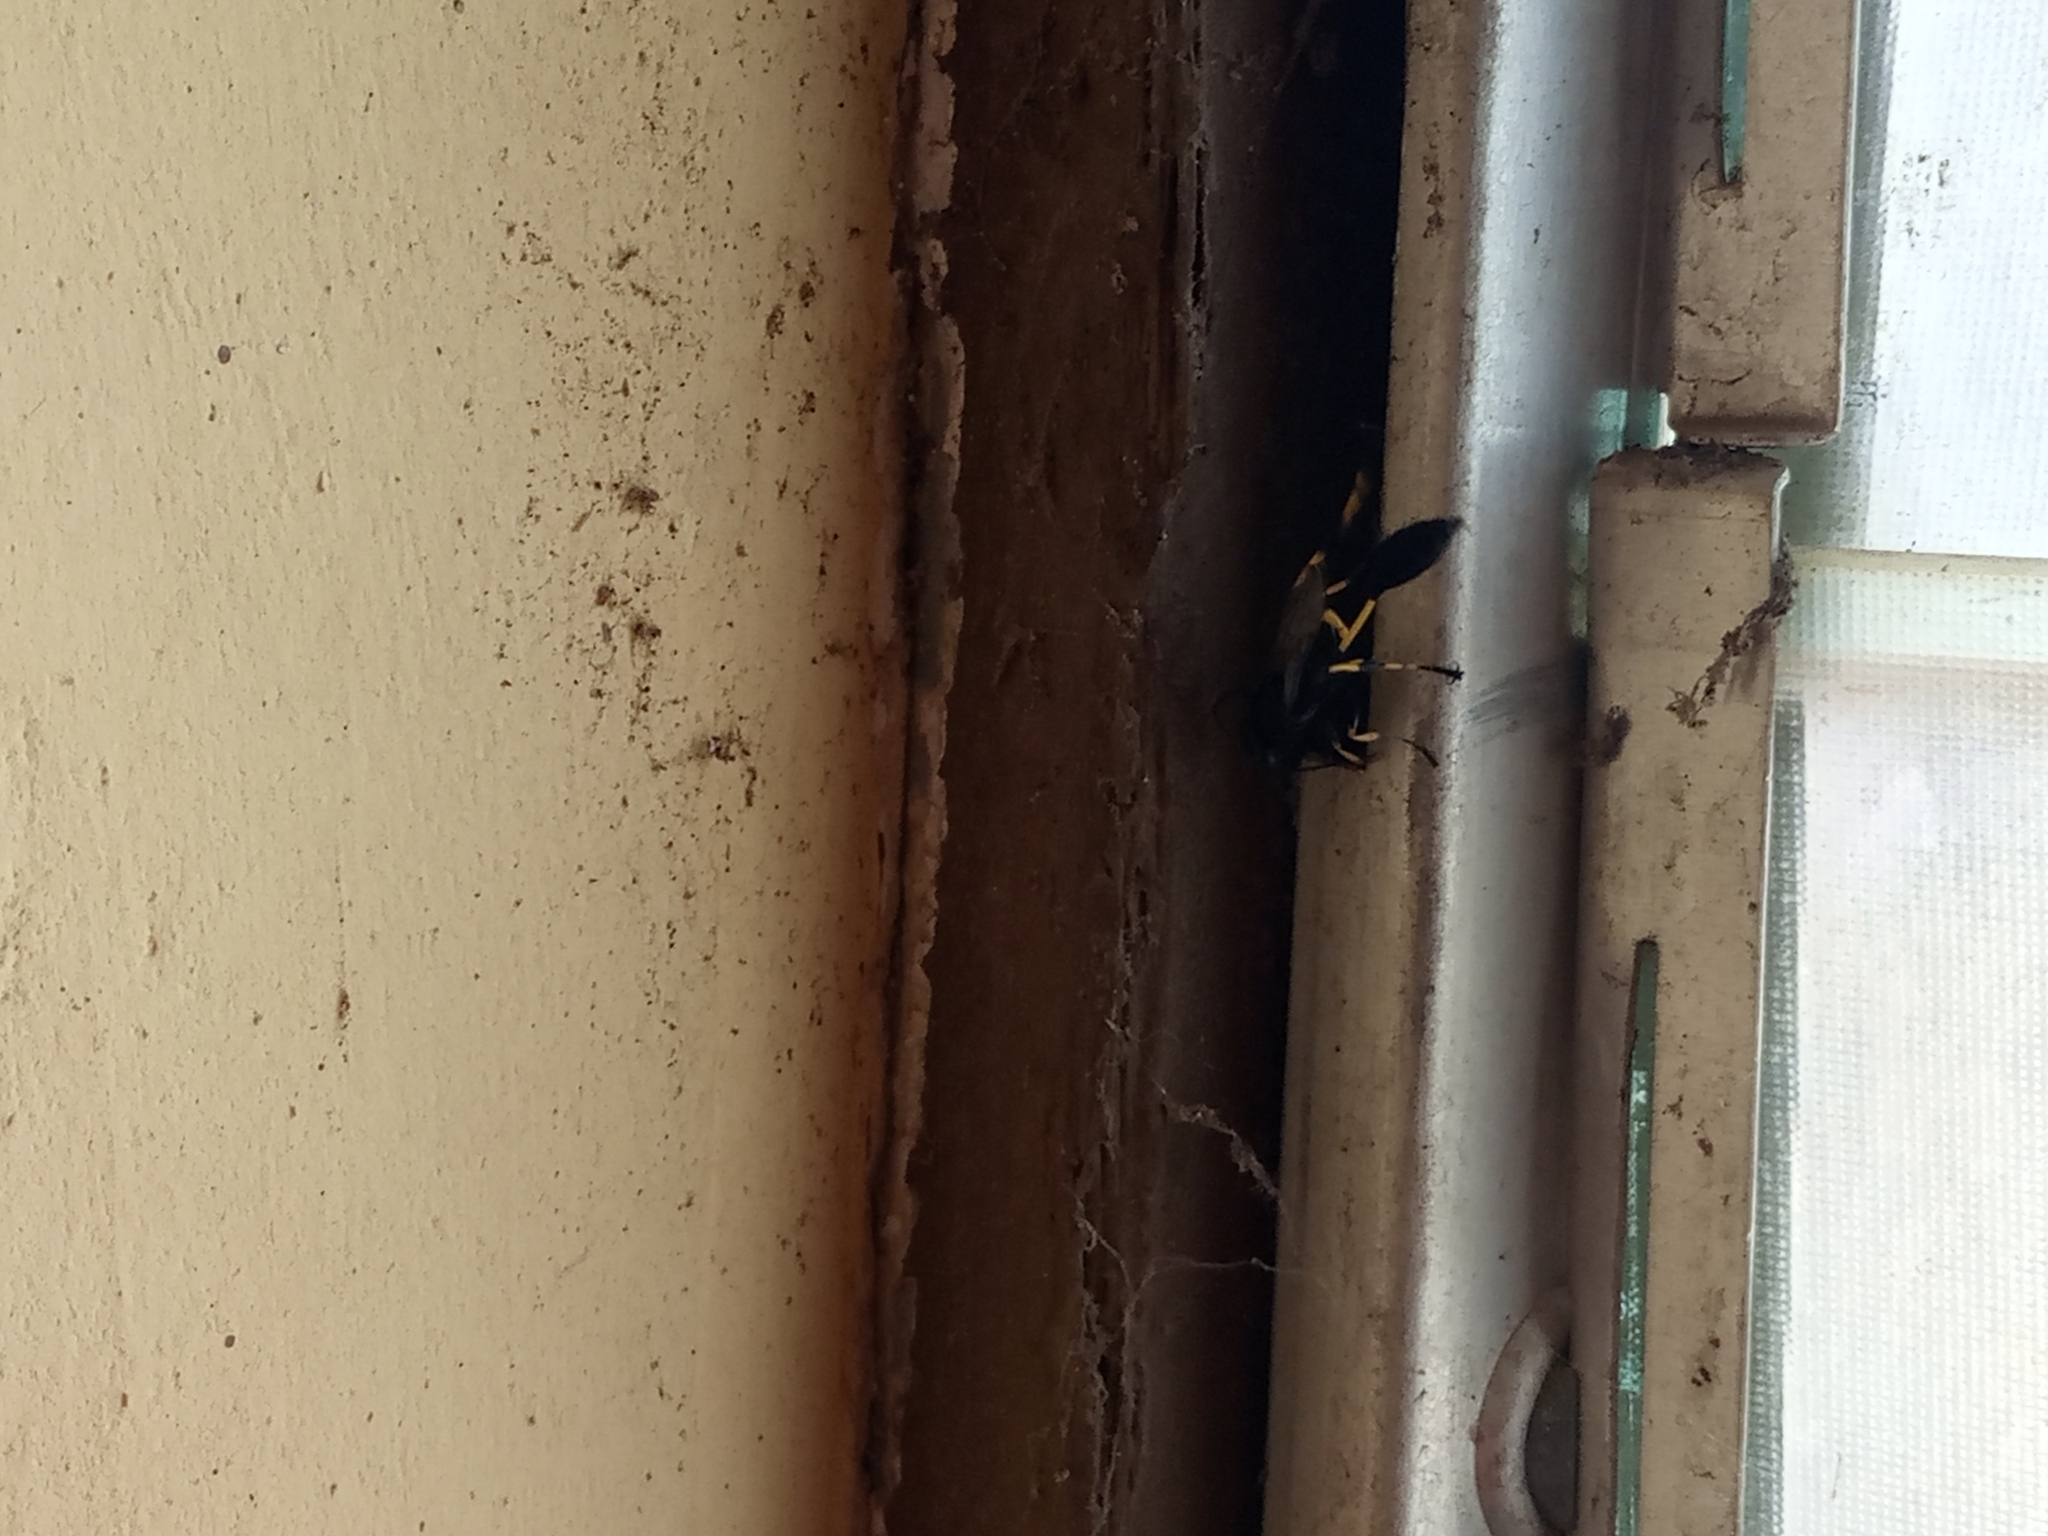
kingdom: Animalia
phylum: Arthropoda
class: Insecta
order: Hymenoptera
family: Sphecidae
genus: Sceliphron
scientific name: Sceliphron spirifex
